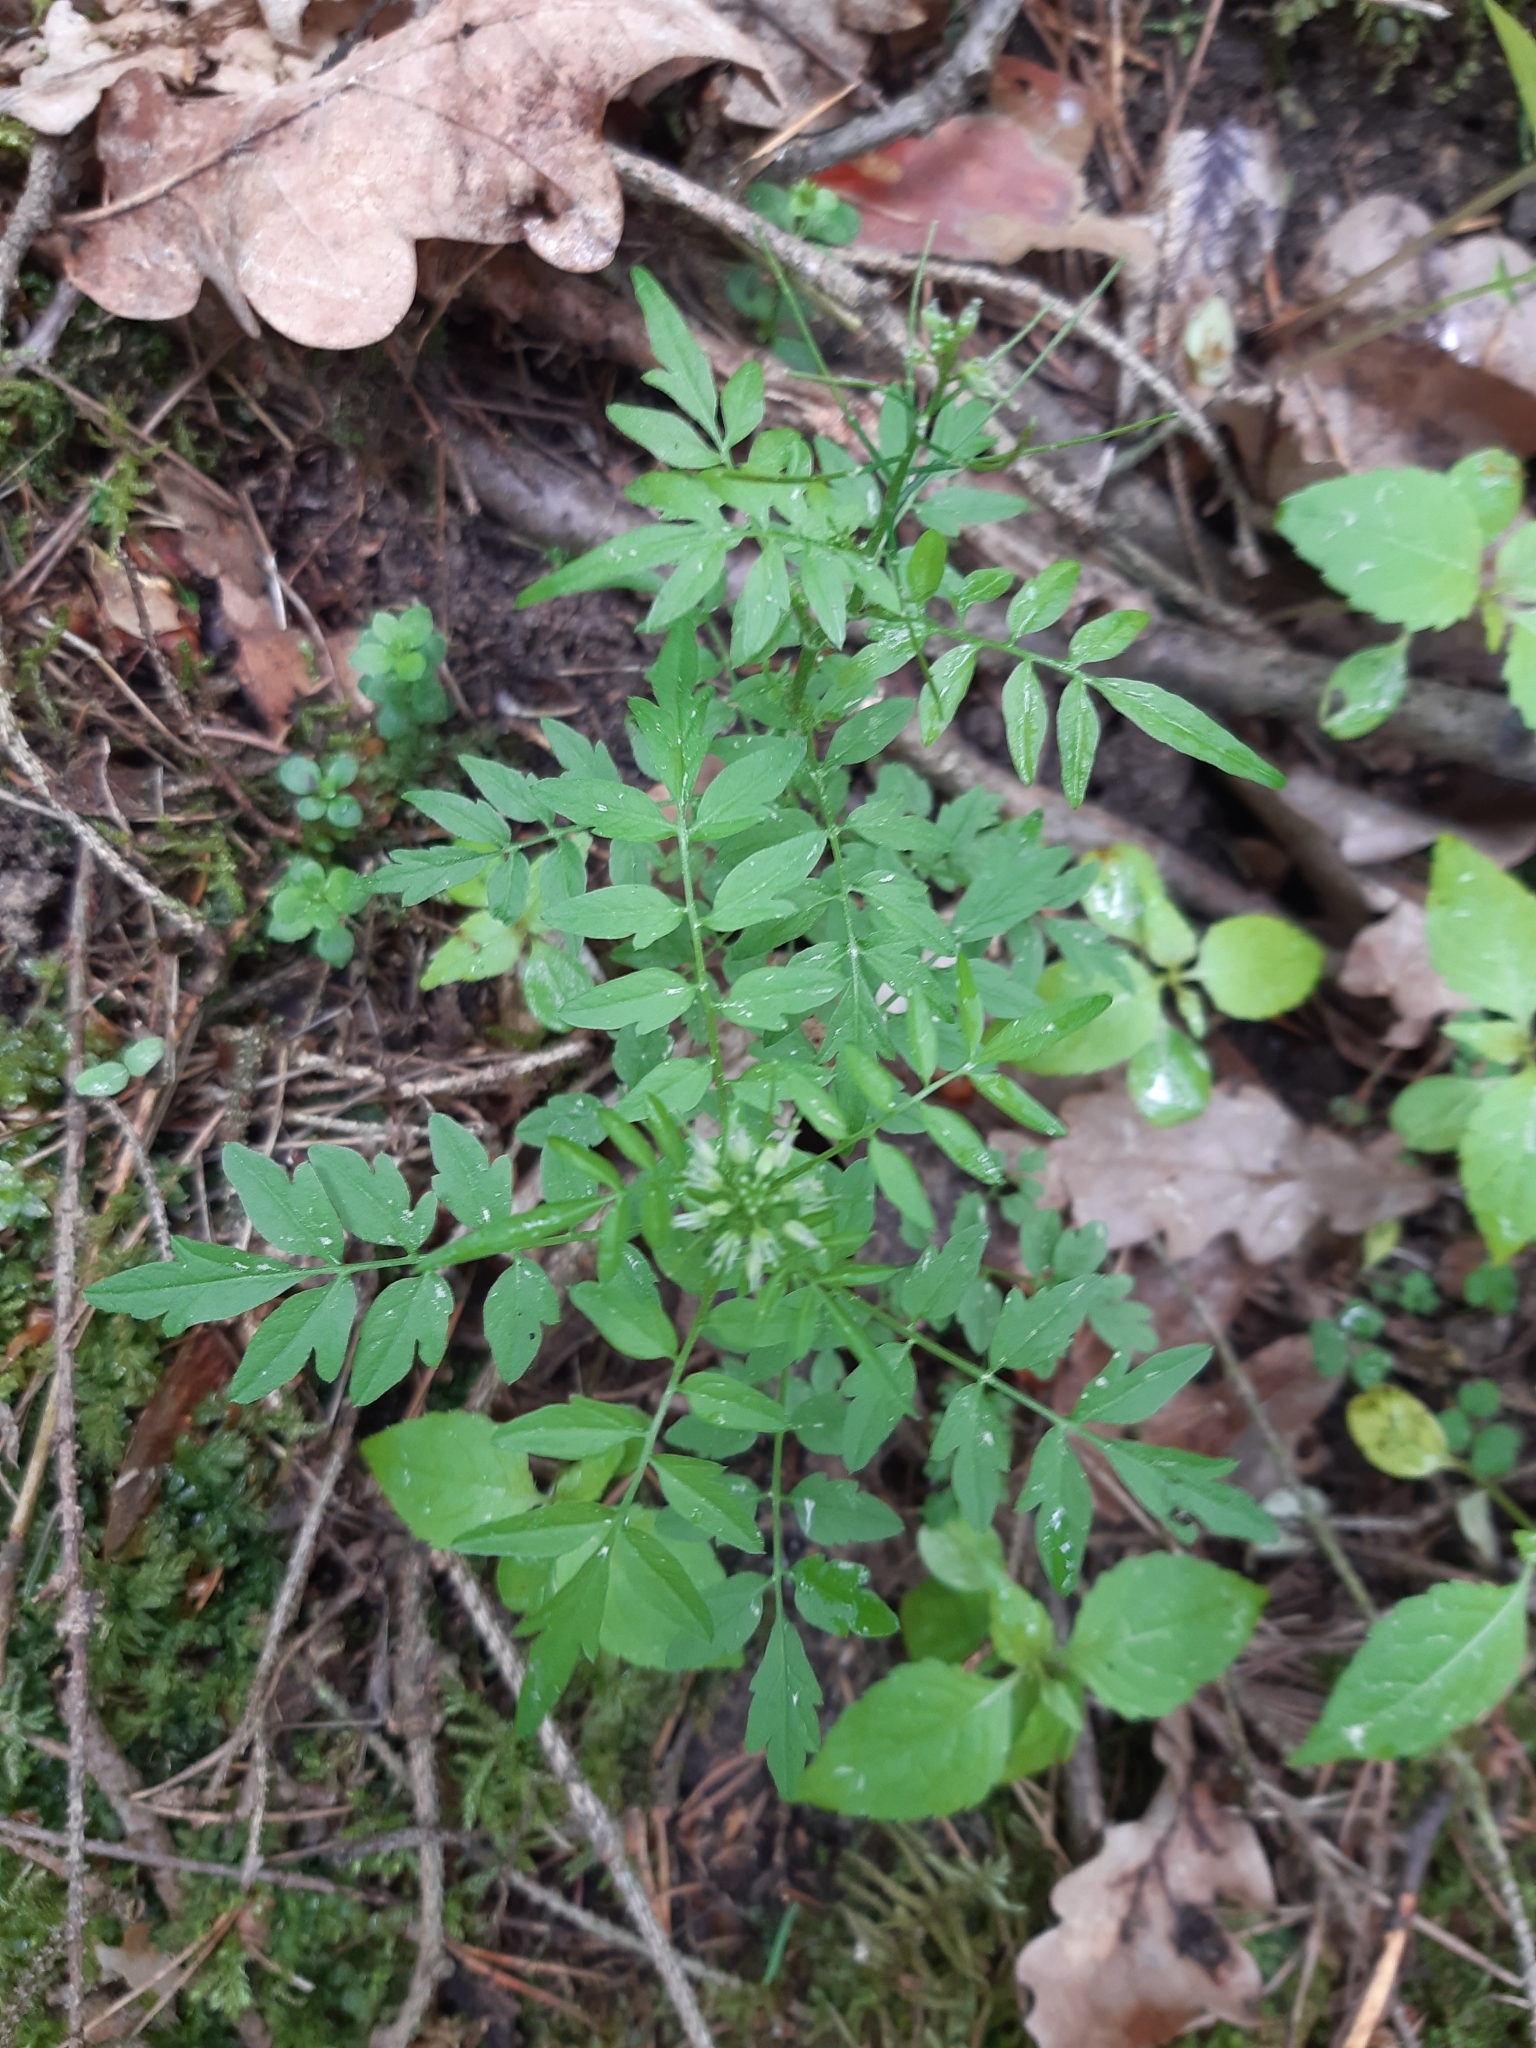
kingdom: Plantae
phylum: Tracheophyta
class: Magnoliopsida
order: Brassicales
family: Brassicaceae
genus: Cardamine
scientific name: Cardamine impatiens
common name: Narrow-leaved bitter-cress
